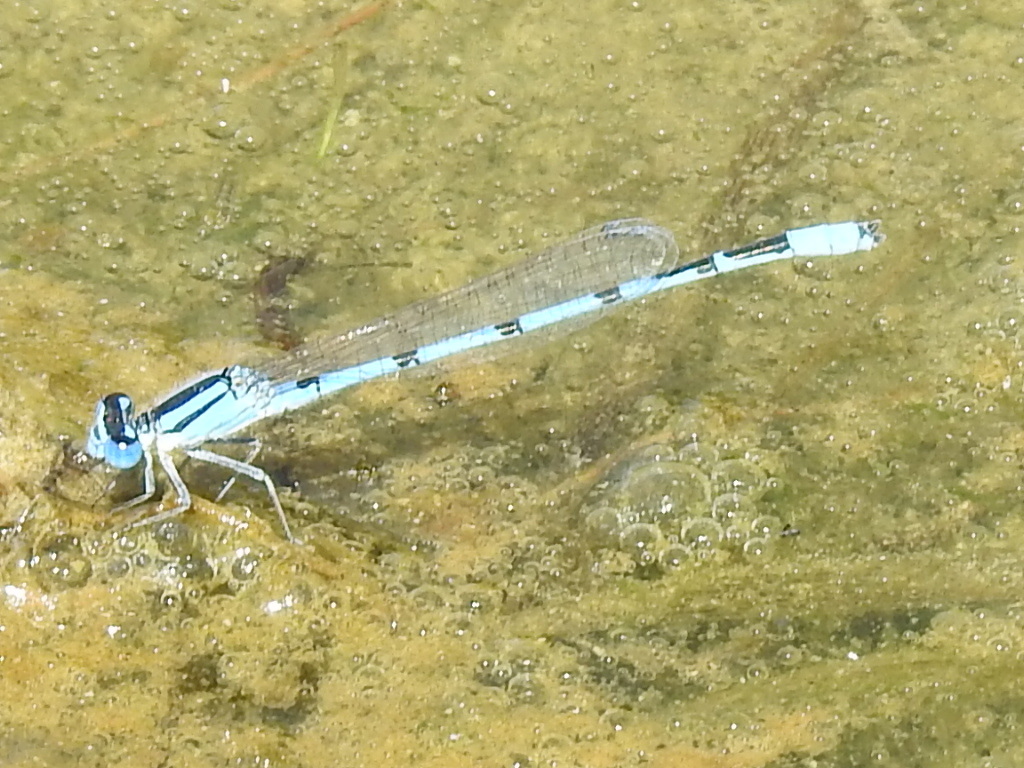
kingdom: Animalia
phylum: Arthropoda
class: Insecta
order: Odonata
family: Coenagrionidae
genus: Enallagma
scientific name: Enallagma civile
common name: Damselfly
